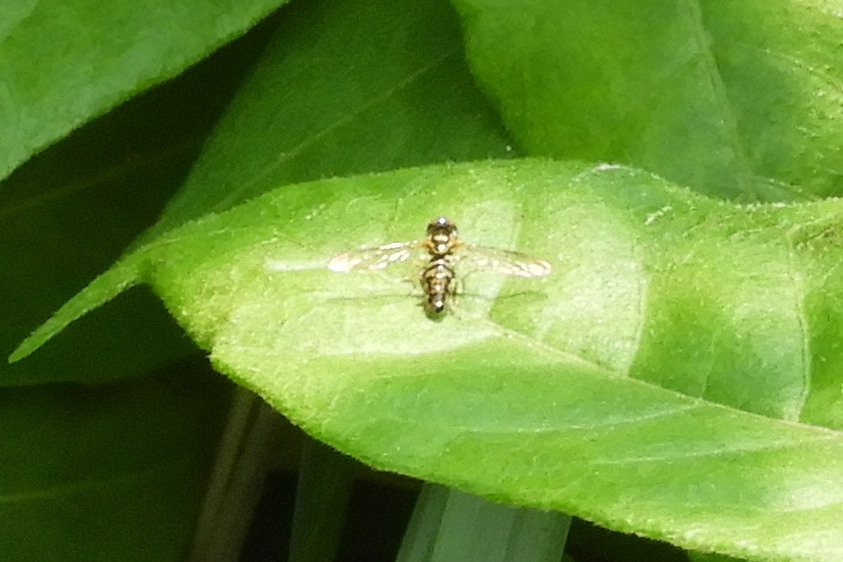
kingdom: Animalia
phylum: Arthropoda
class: Insecta
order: Diptera
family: Syrphidae
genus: Toxomerus
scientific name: Toxomerus geminatus
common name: Eastern calligrapher
